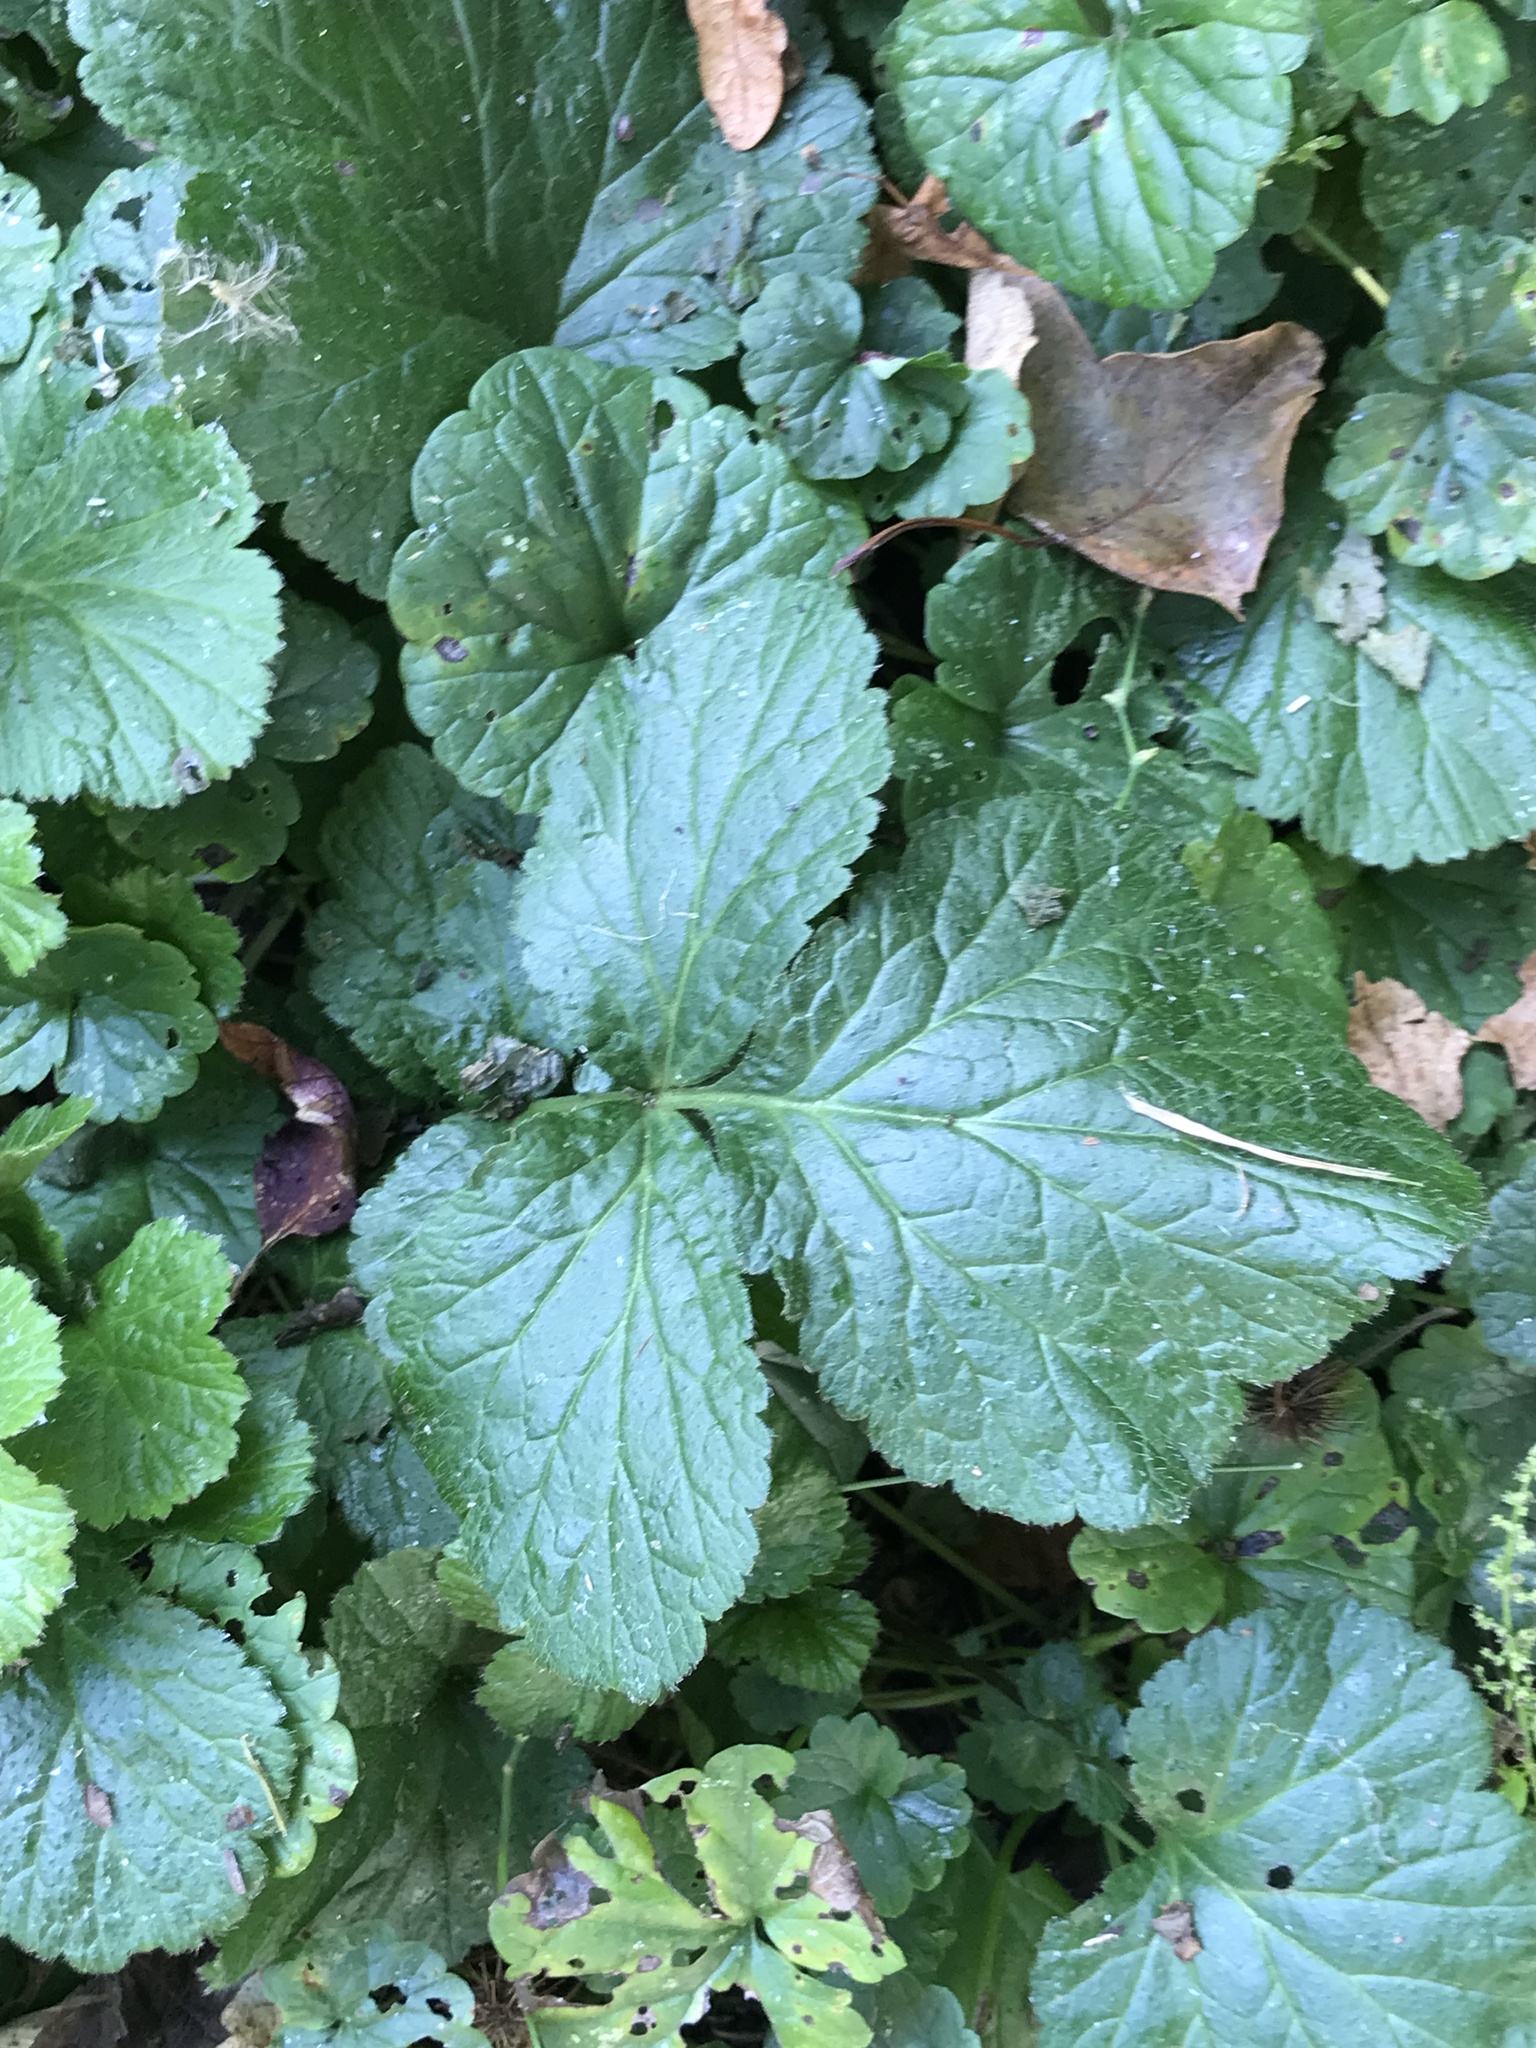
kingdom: Plantae
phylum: Tracheophyta
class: Magnoliopsida
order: Rosales
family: Rosaceae
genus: Geum
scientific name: Geum urbanum
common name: Wood avens
